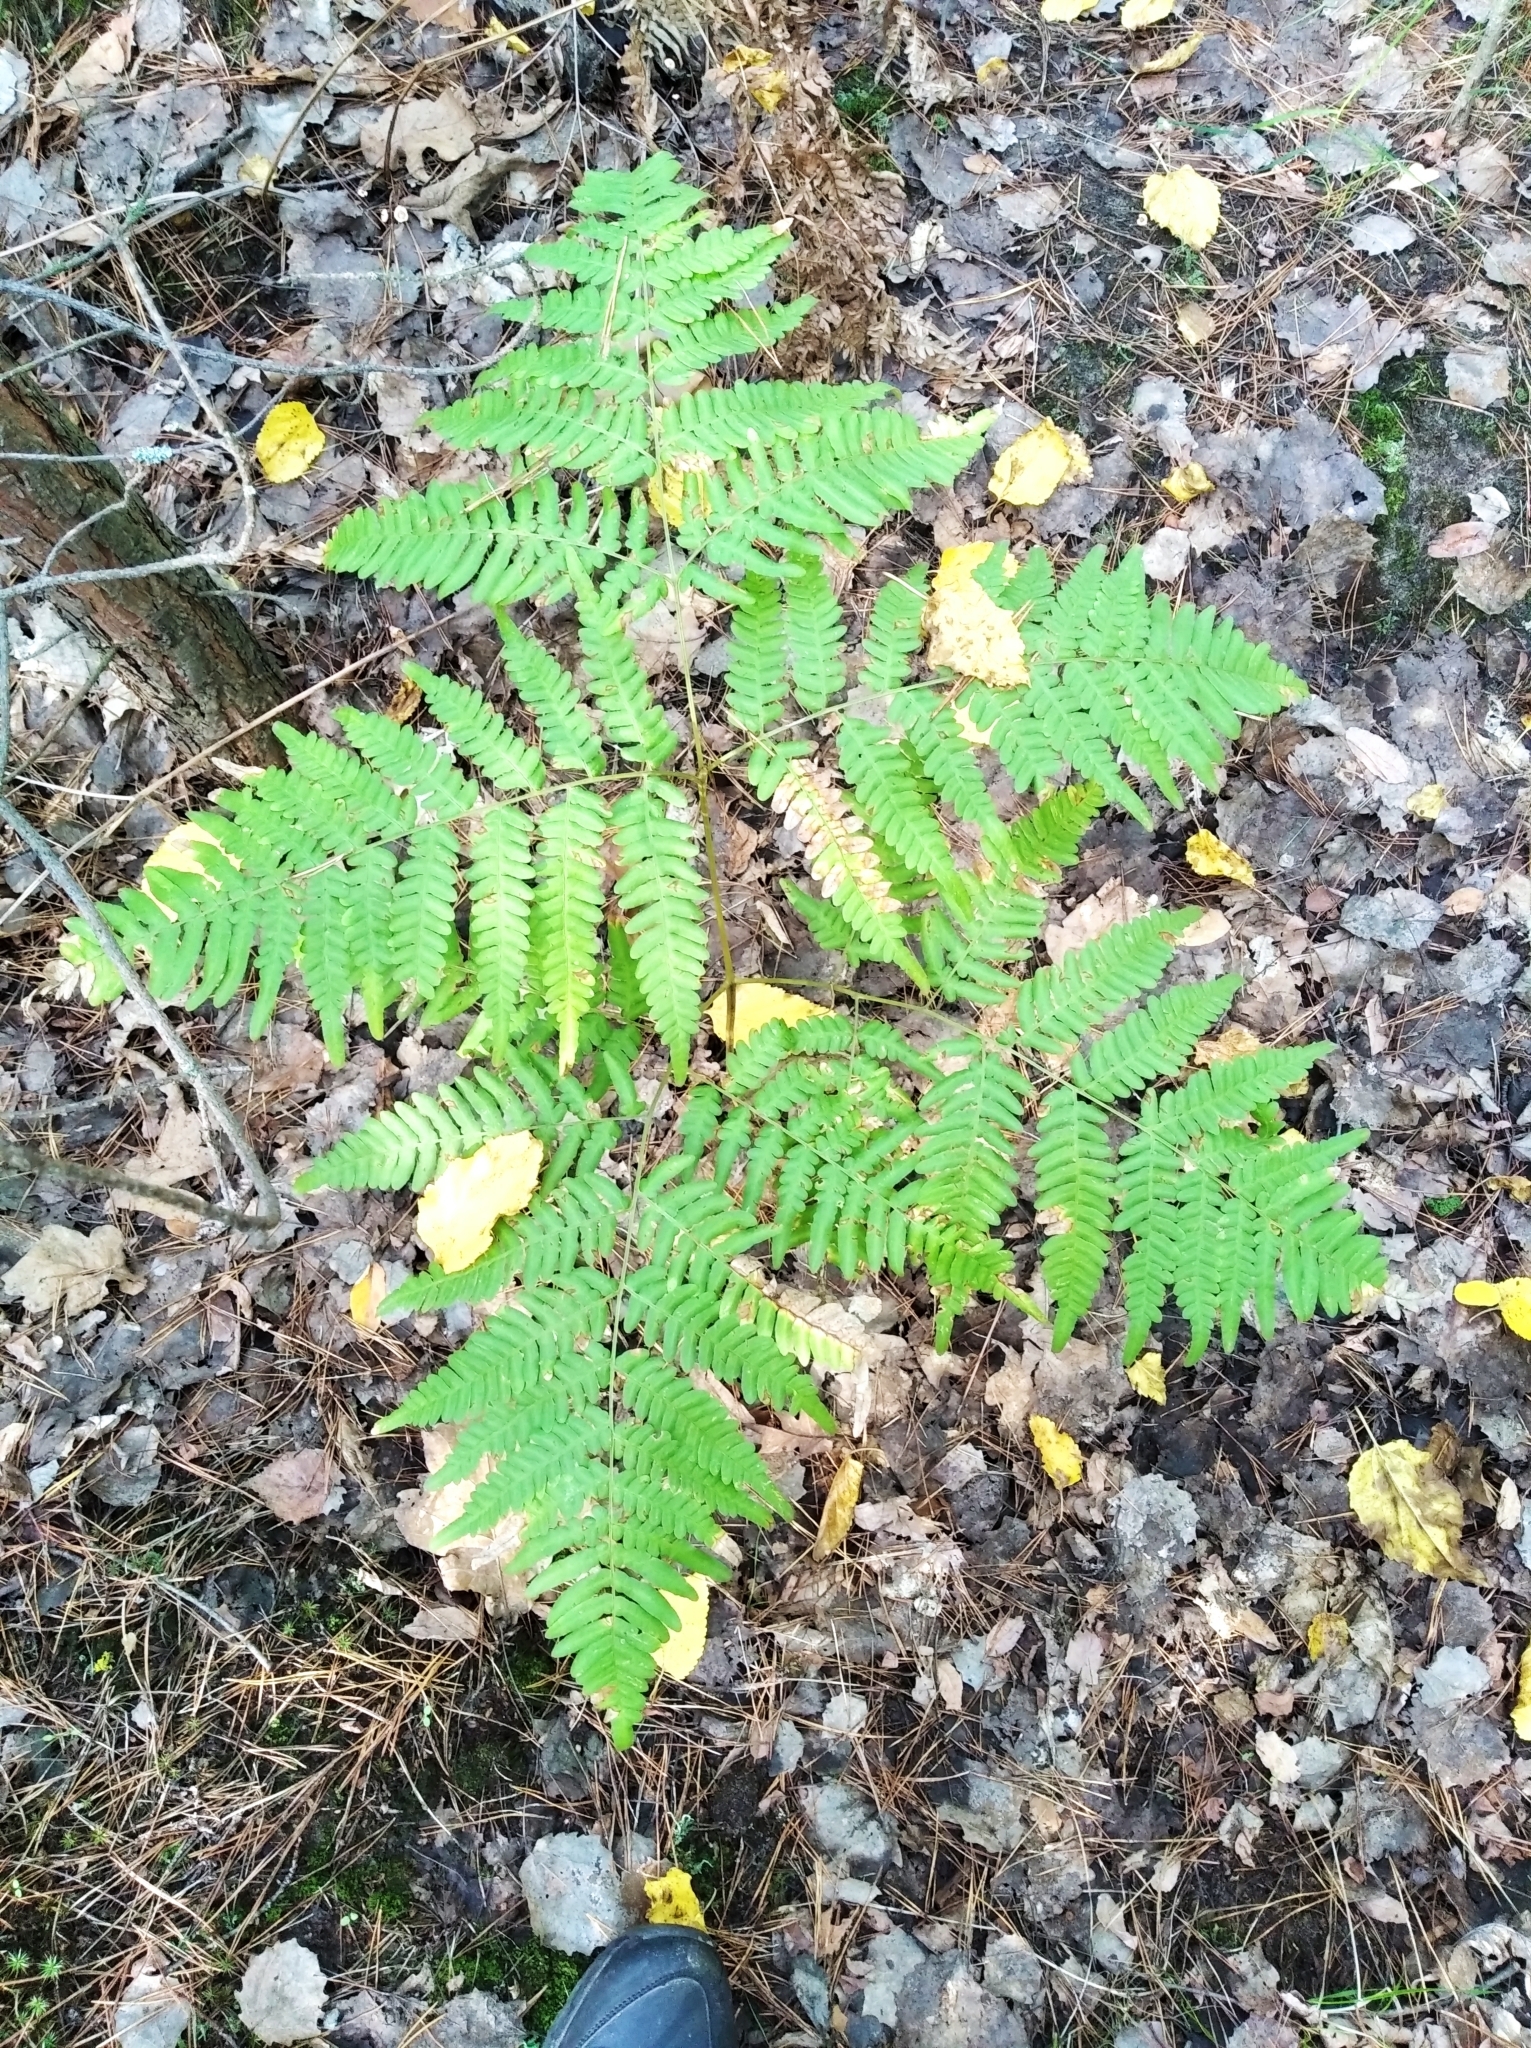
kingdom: Plantae
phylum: Tracheophyta
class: Polypodiopsida
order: Polypodiales
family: Dennstaedtiaceae
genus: Pteridium
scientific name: Pteridium aquilinum
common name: Bracken
